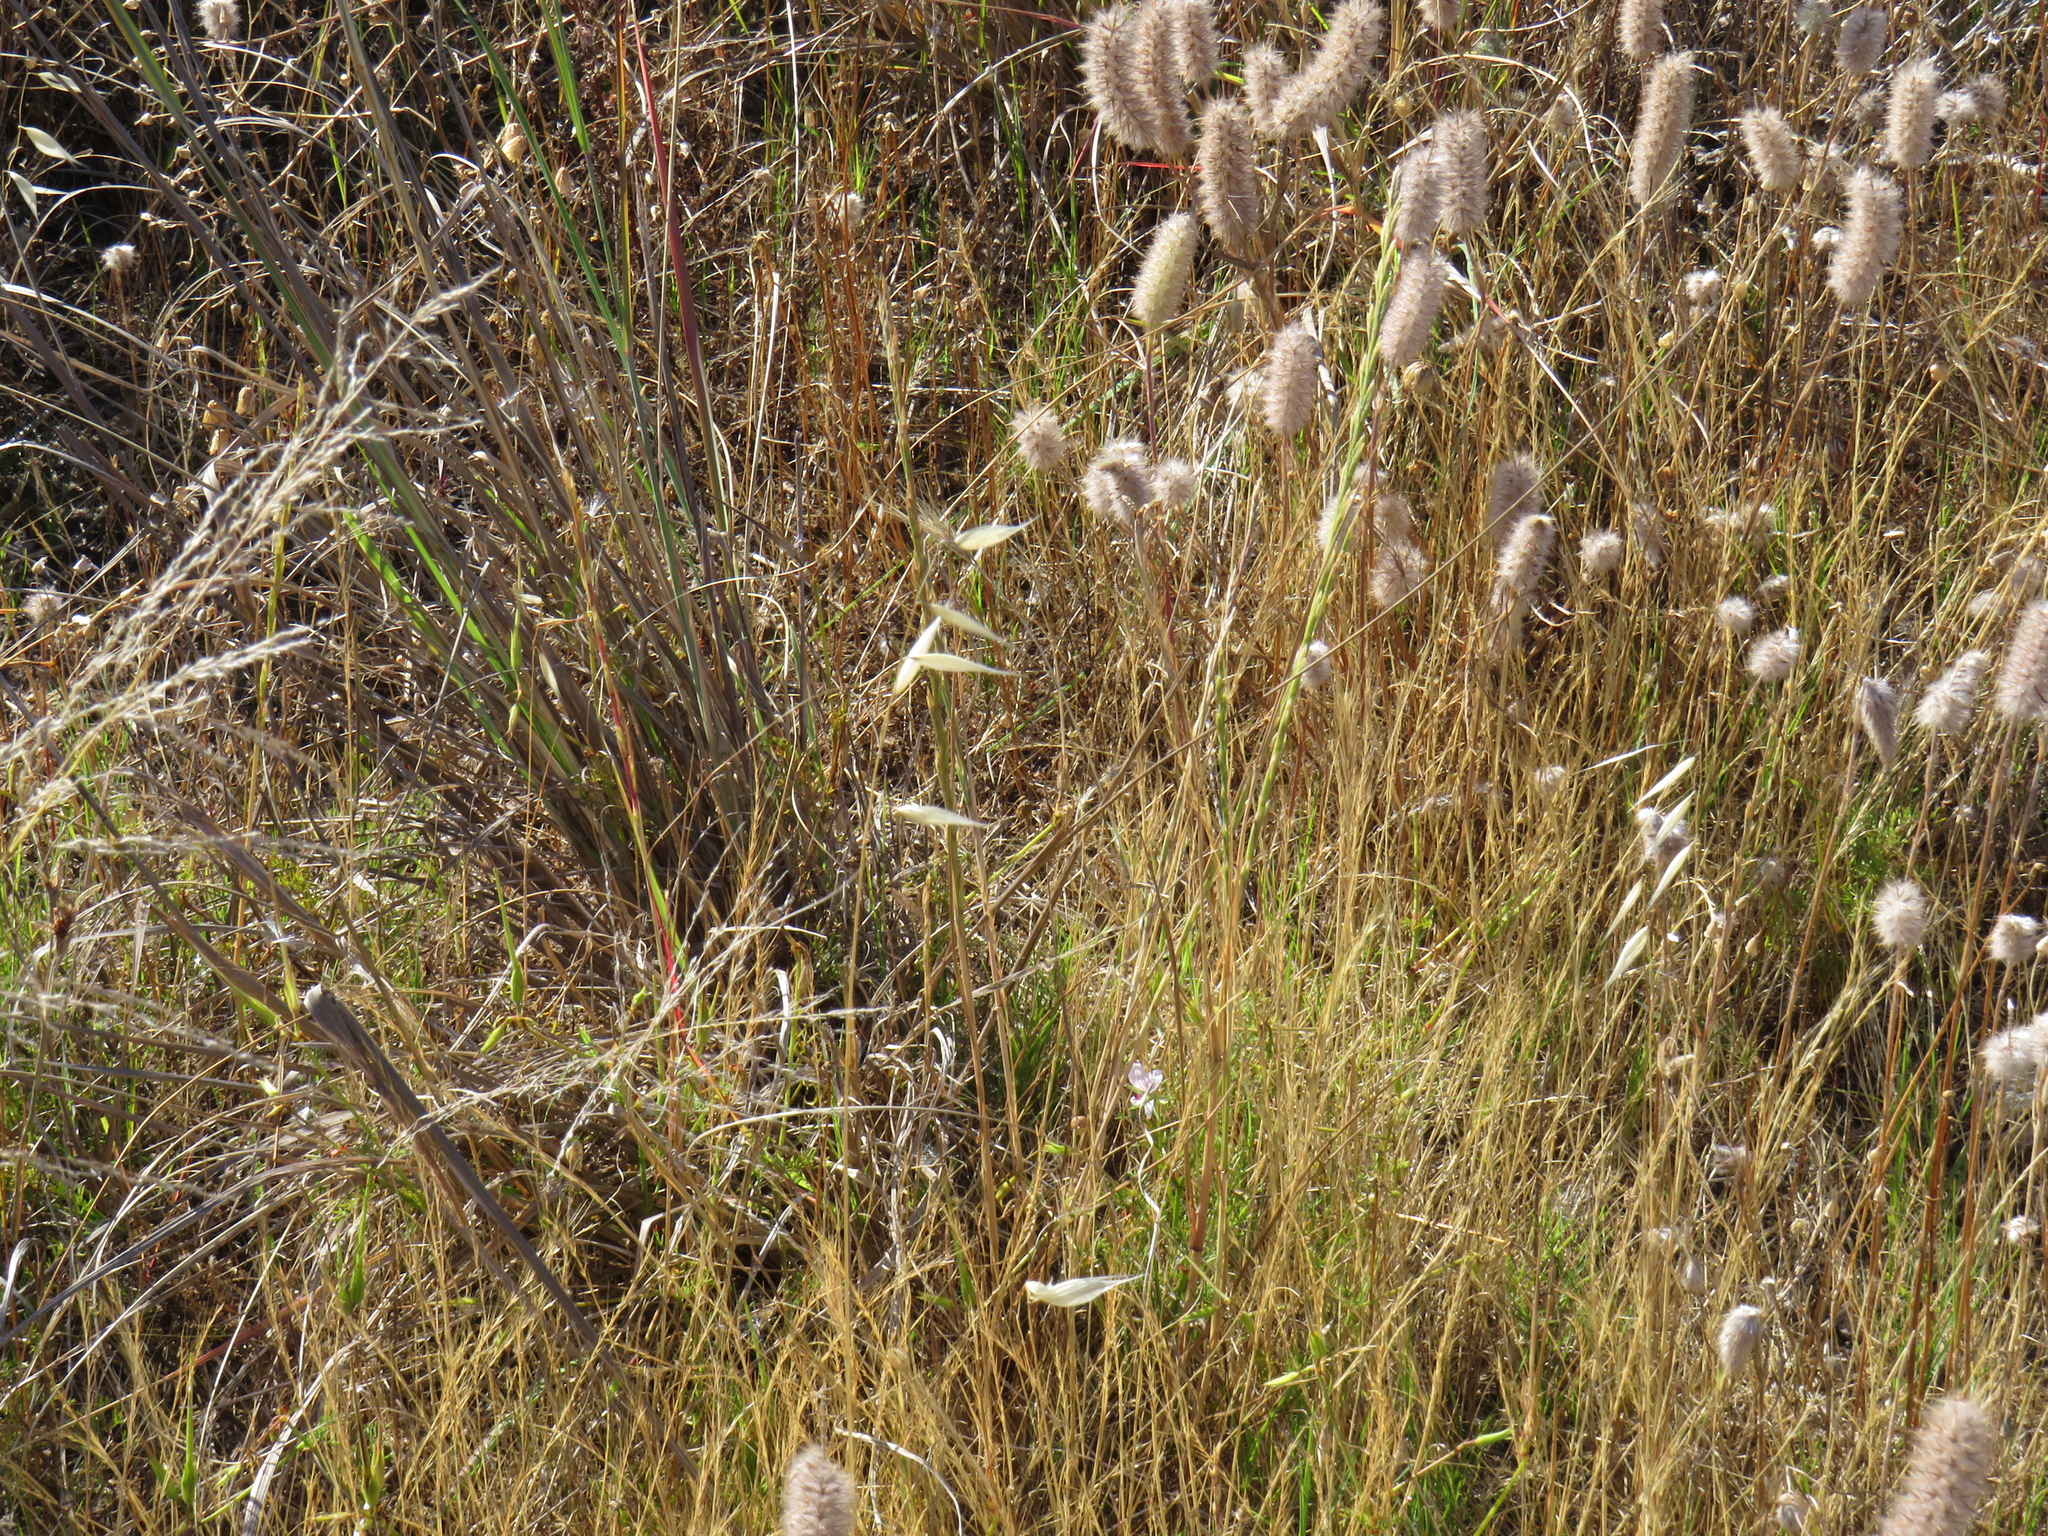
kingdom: Plantae
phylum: Tracheophyta
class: Magnoliopsida
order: Fabales
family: Fabaceae
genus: Trifolium
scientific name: Trifolium angustifolium
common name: Narrow clover
